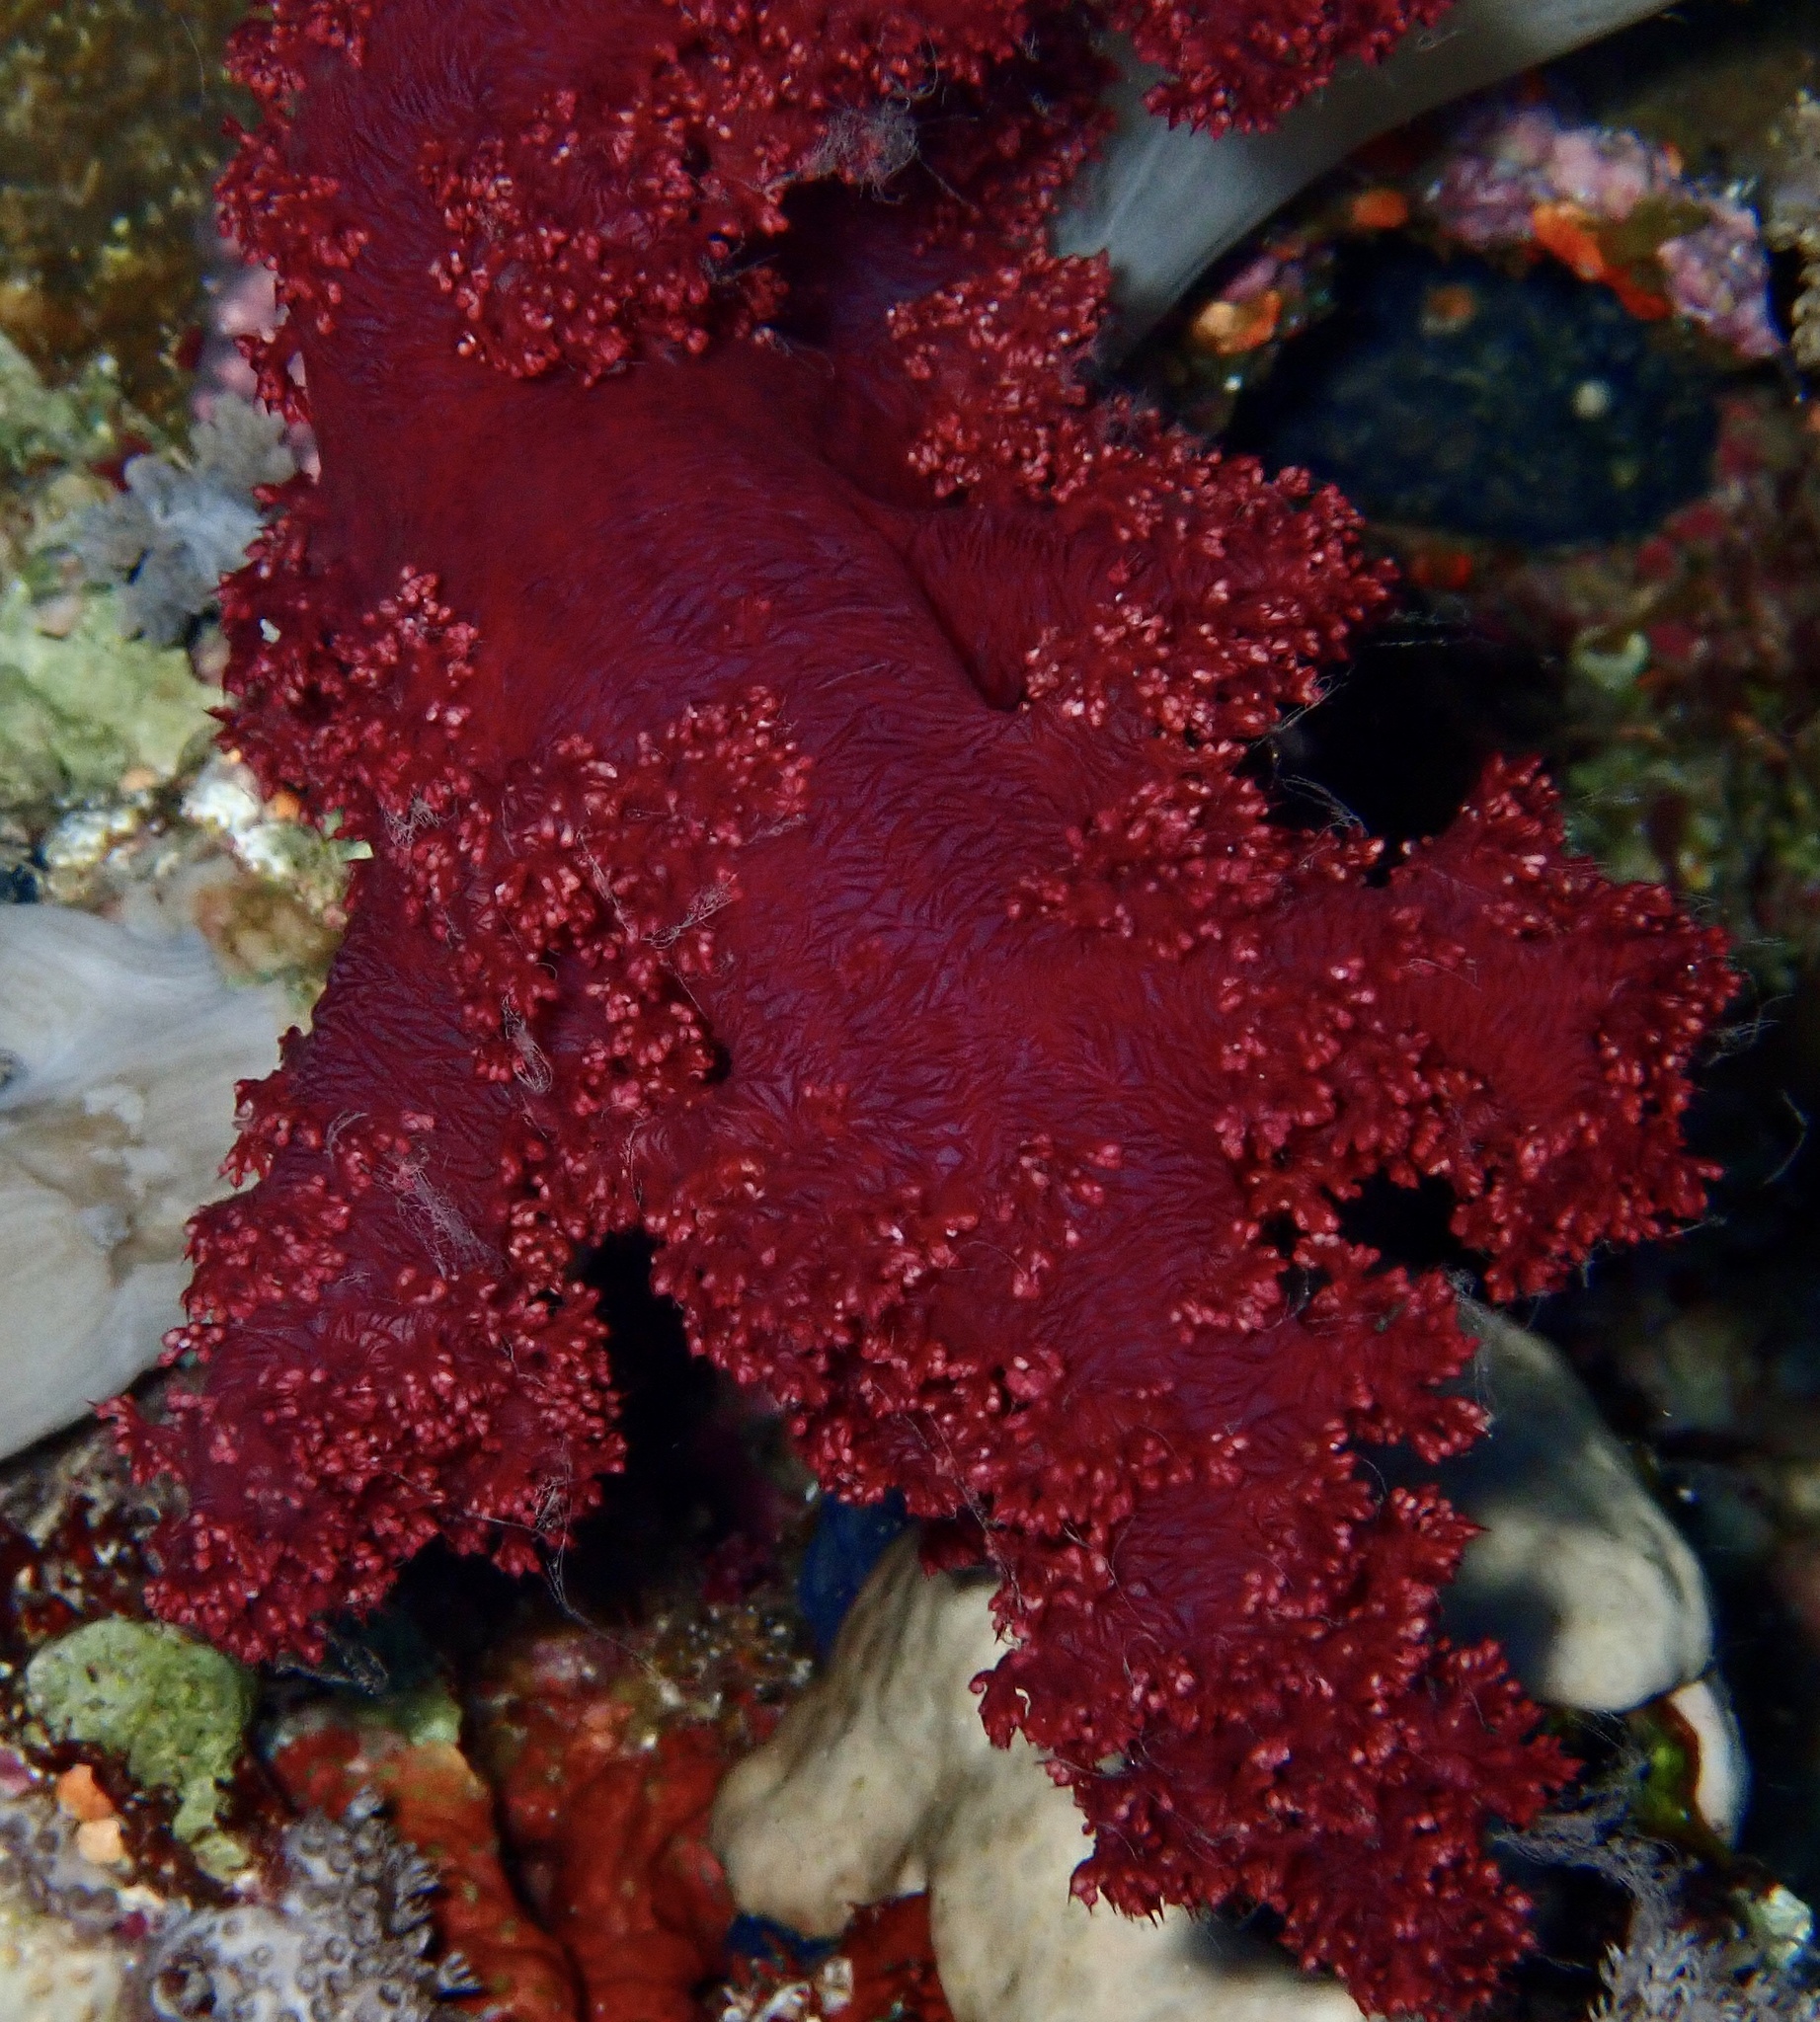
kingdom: Animalia
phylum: Cnidaria
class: Anthozoa
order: Malacalcyonacea
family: Nephtheidae
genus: Dendronephthya
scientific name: Dendronephthya hemprichi
